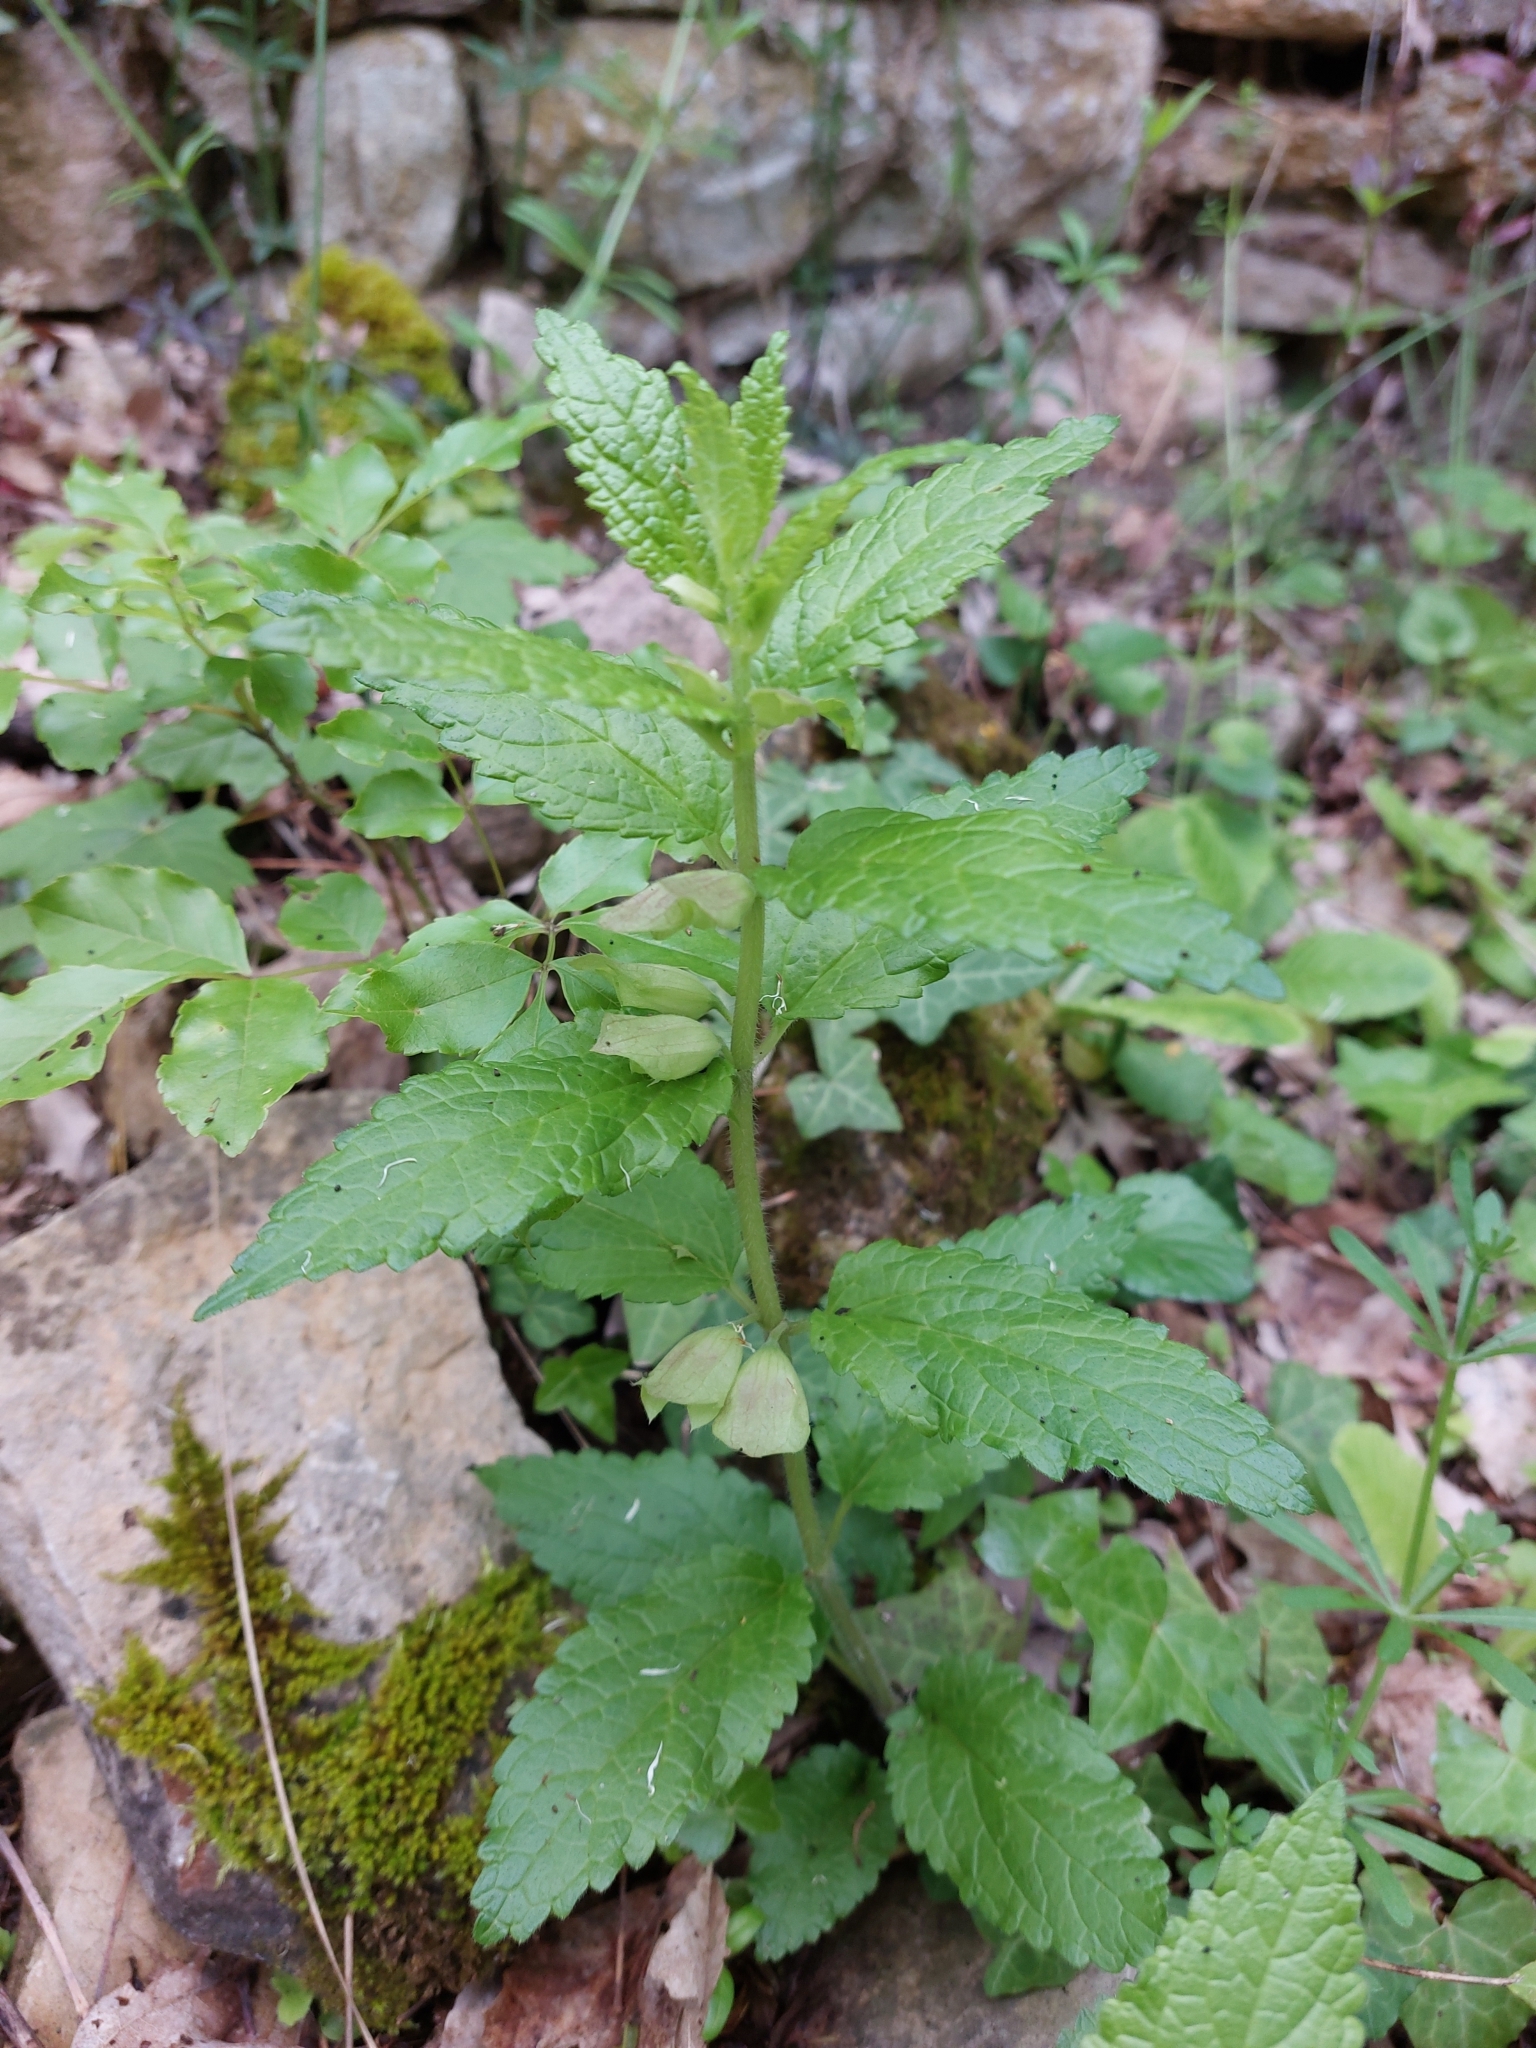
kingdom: Plantae
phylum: Tracheophyta
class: Magnoliopsida
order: Lamiales
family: Lamiaceae
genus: Melittis
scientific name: Melittis melissophyllum
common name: Bastard balm
